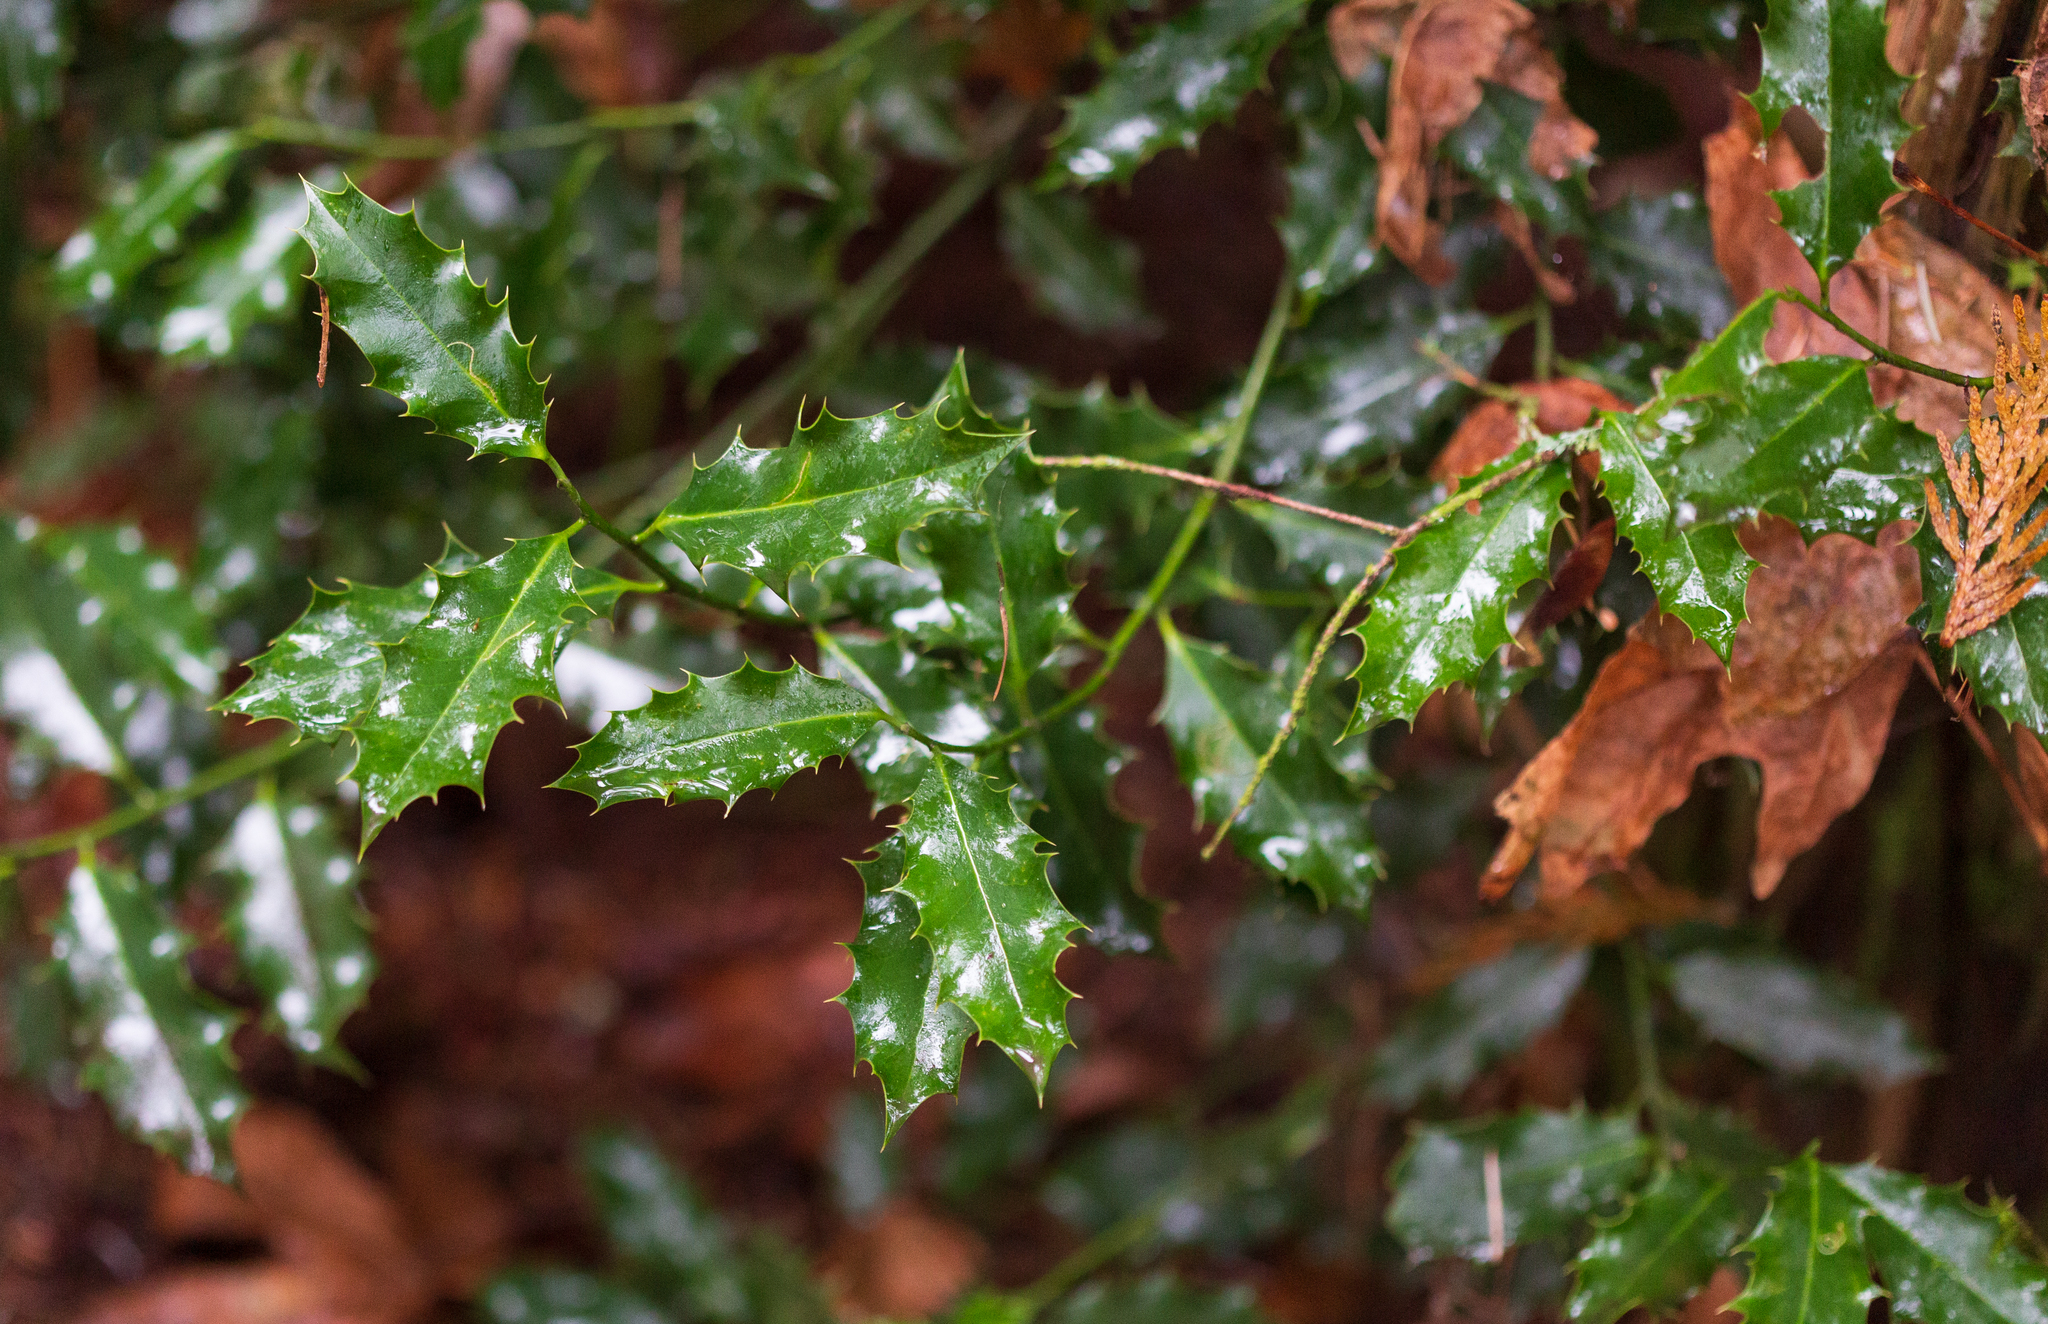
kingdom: Plantae
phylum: Tracheophyta
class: Magnoliopsida
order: Aquifoliales
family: Aquifoliaceae
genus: Ilex
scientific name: Ilex aquifolium
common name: English holly
